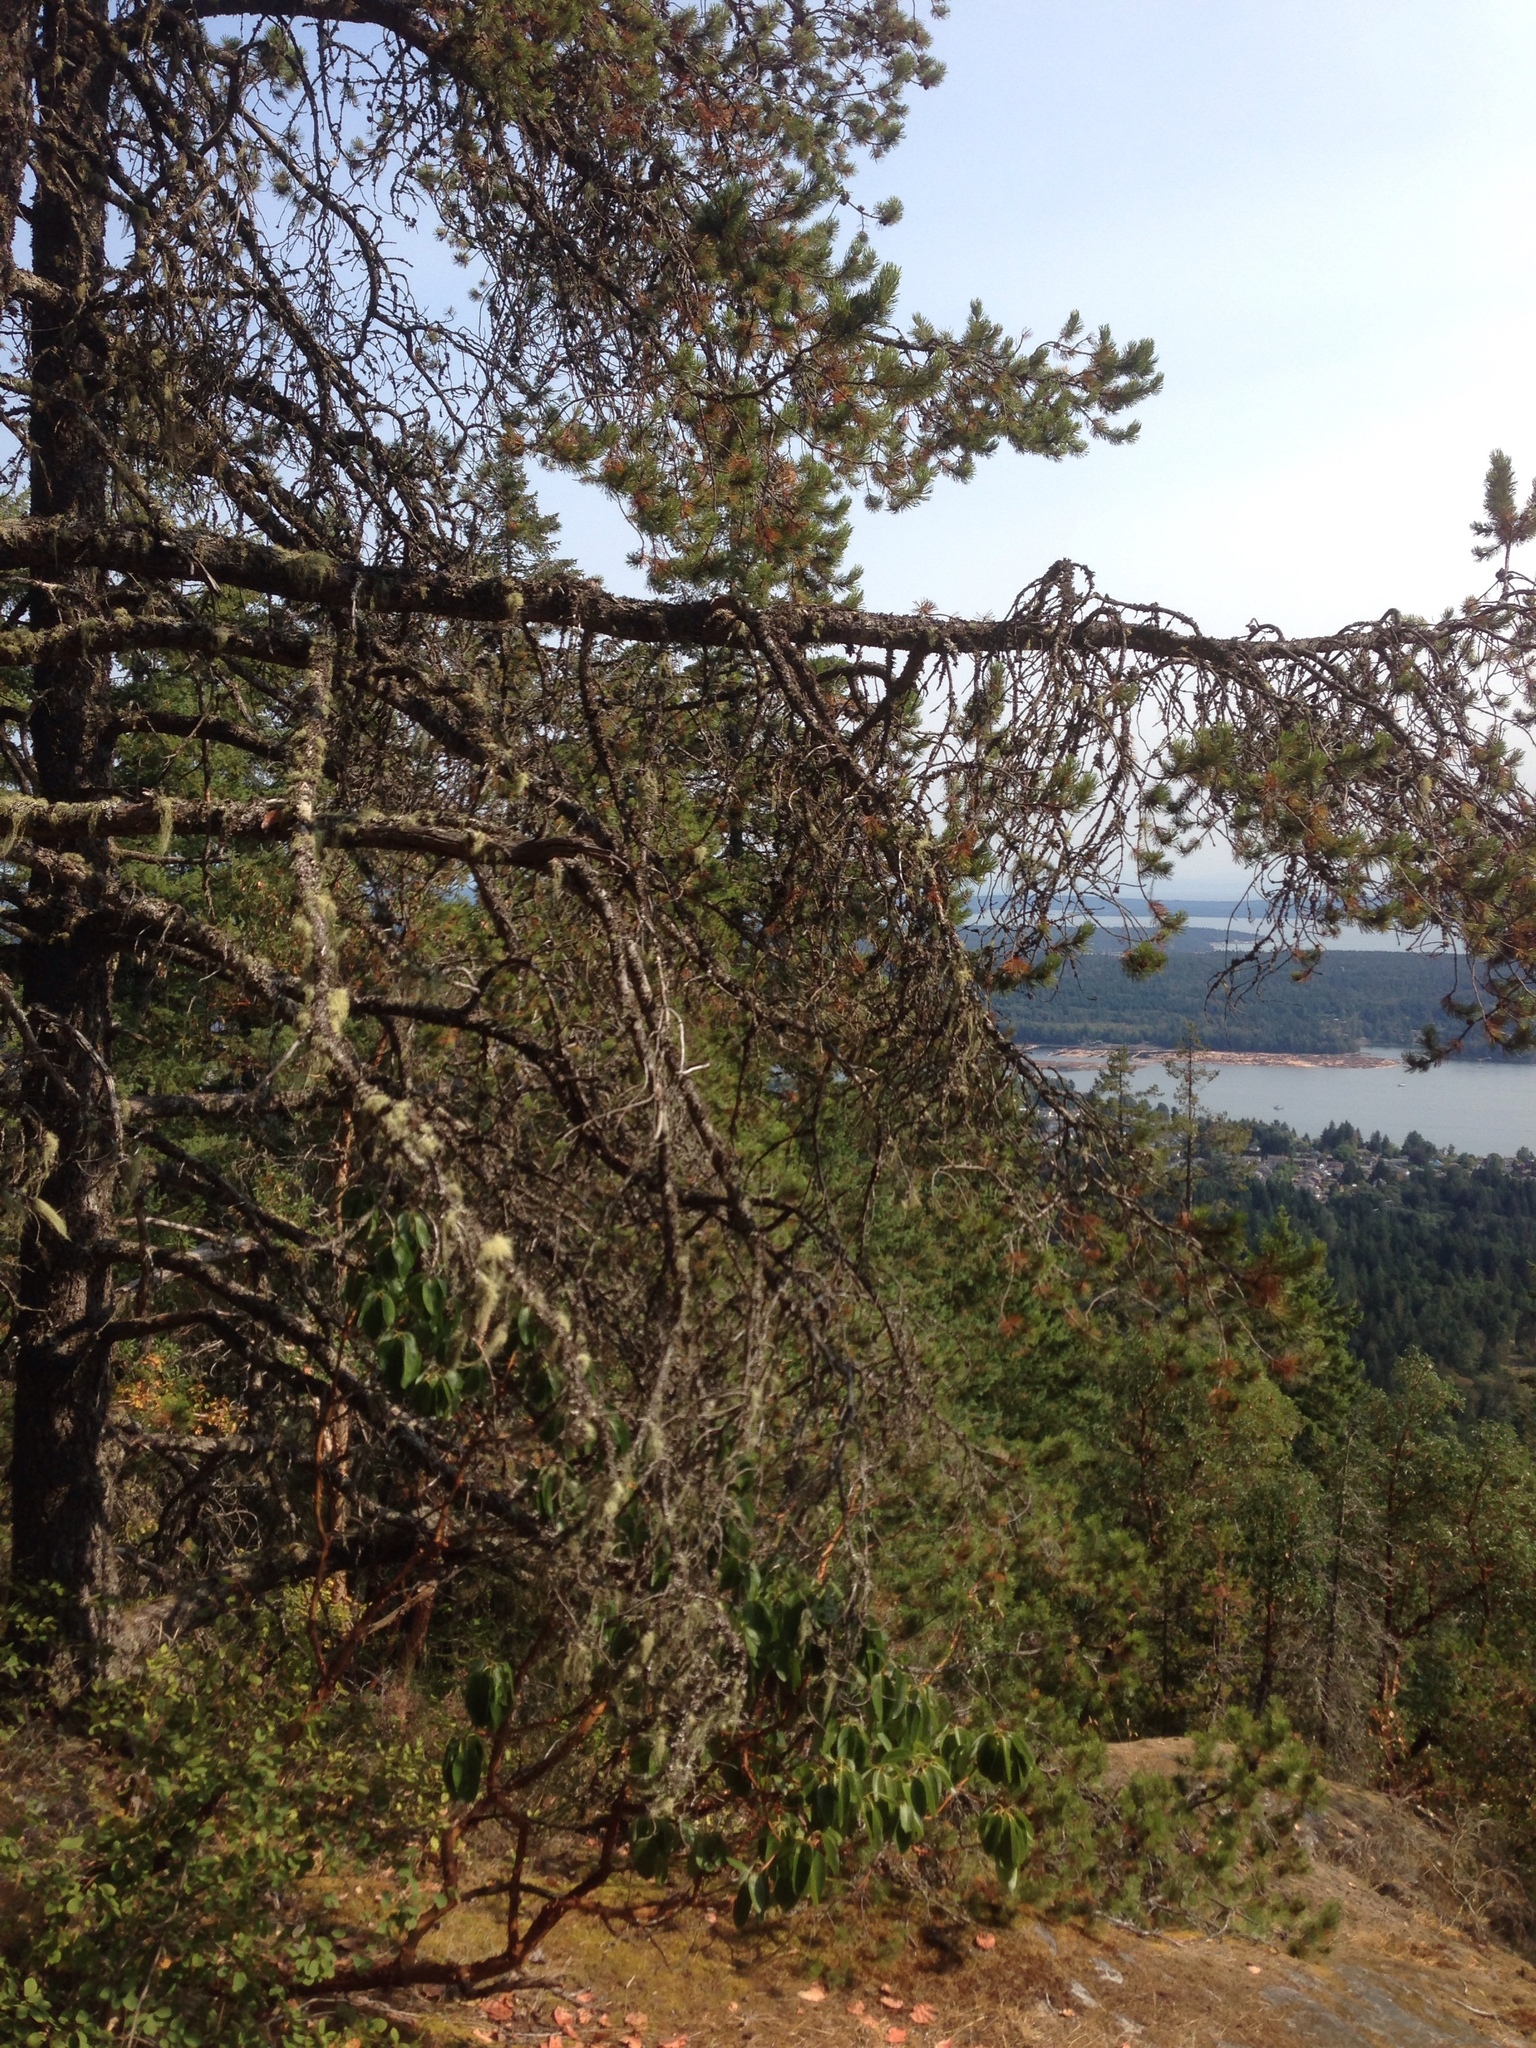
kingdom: Plantae
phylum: Tracheophyta
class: Pinopsida
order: Pinales
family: Pinaceae
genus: Pinus
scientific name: Pinus contorta
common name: Lodgepole pine
